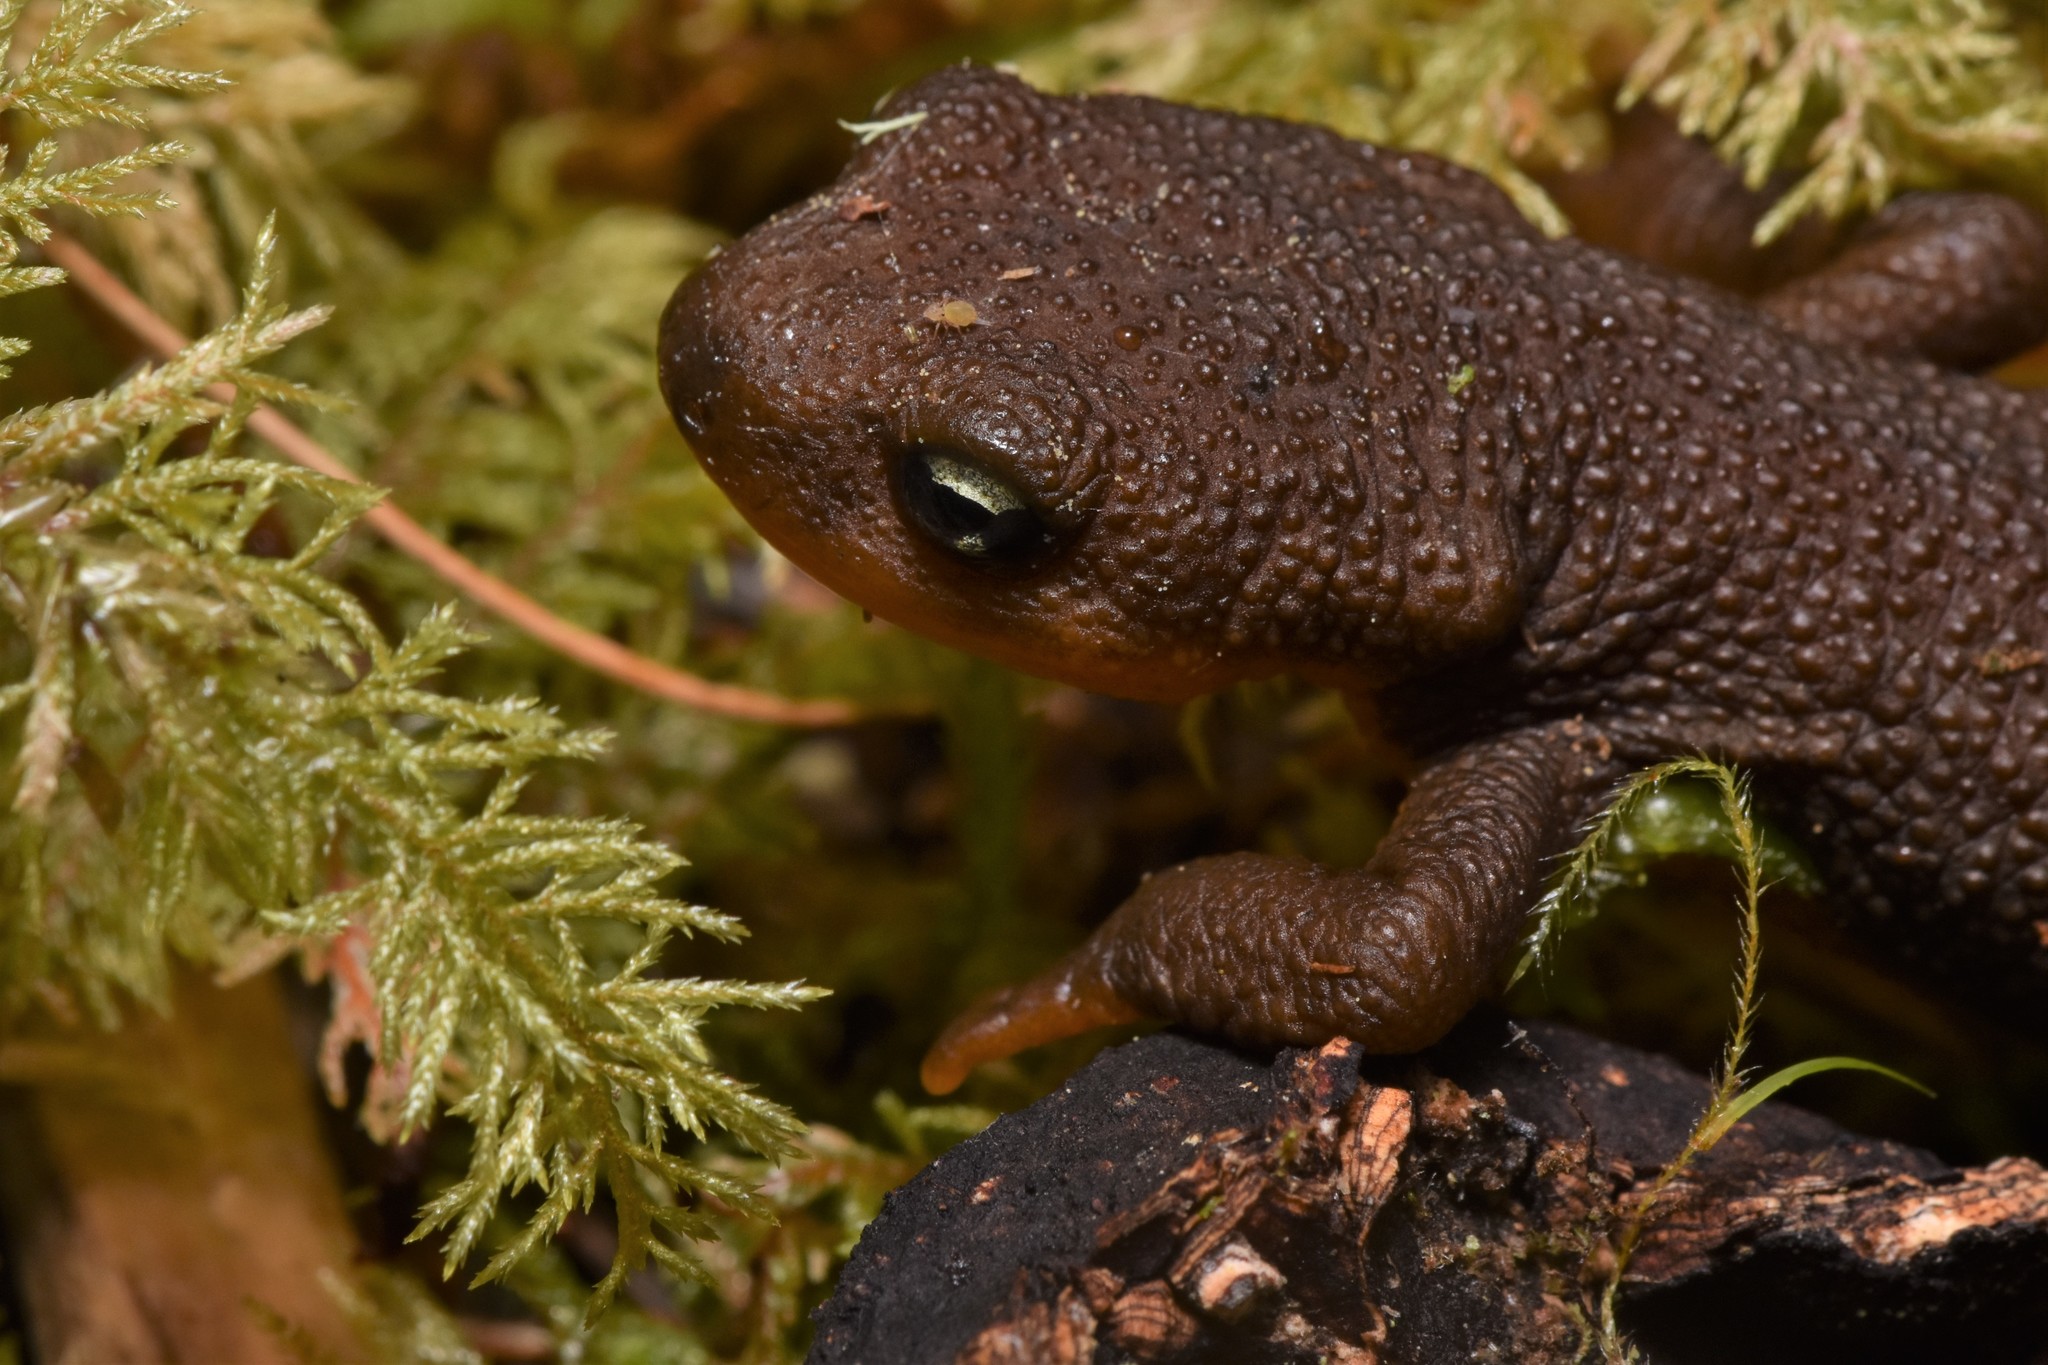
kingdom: Animalia
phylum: Chordata
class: Amphibia
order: Caudata
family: Salamandridae
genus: Taricha
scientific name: Taricha granulosa
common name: Roughskin newt
